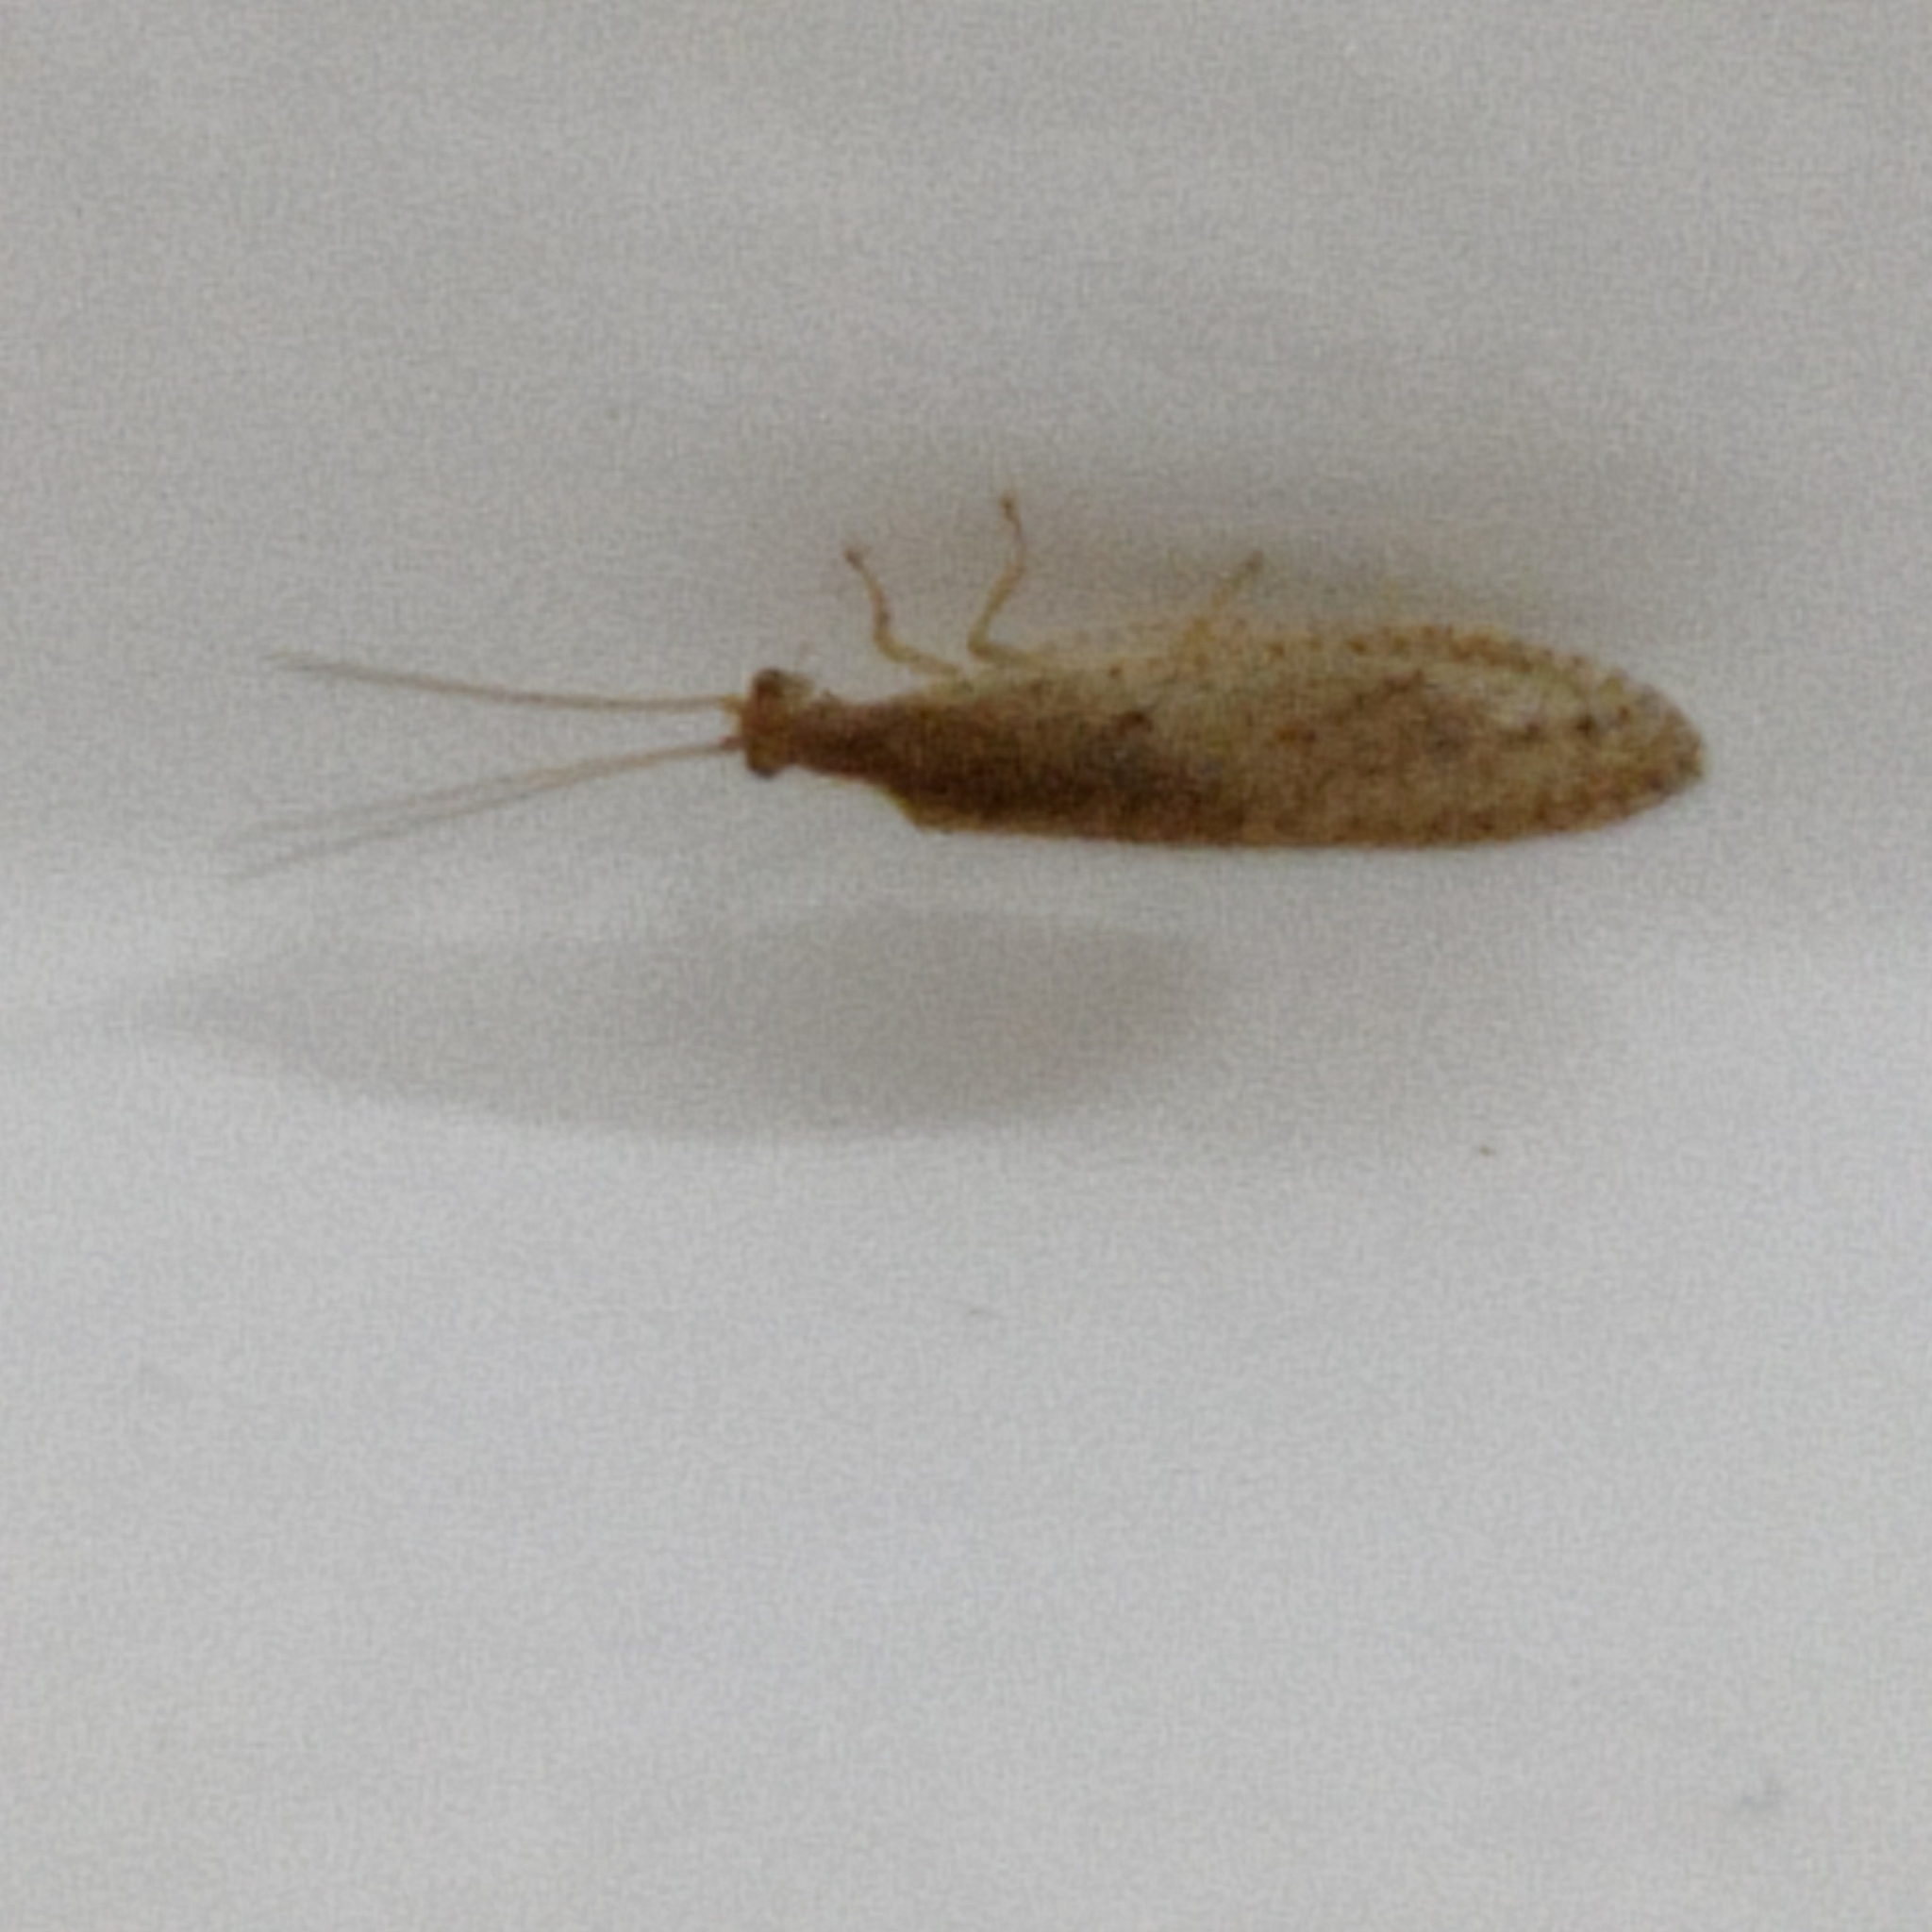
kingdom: Animalia
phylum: Arthropoda
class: Insecta
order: Neuroptera
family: Hemerobiidae
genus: Micromus
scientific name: Micromus tasmaniae
